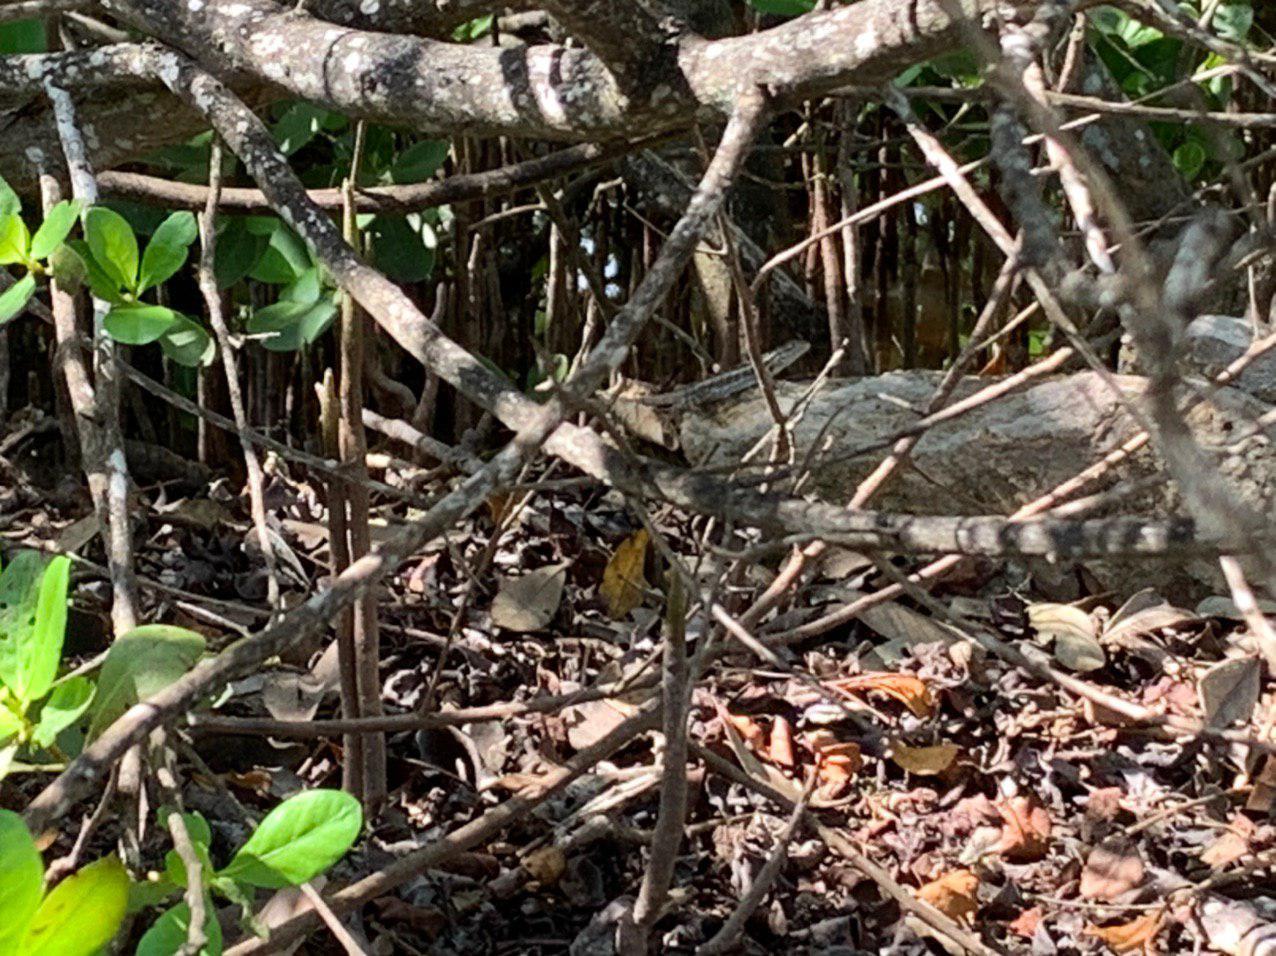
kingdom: Animalia
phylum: Chordata
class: Squamata
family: Phrynosomatidae
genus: Sceloporus
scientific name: Sceloporus chrysostictus
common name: Yellow-spotted spiny lizard
